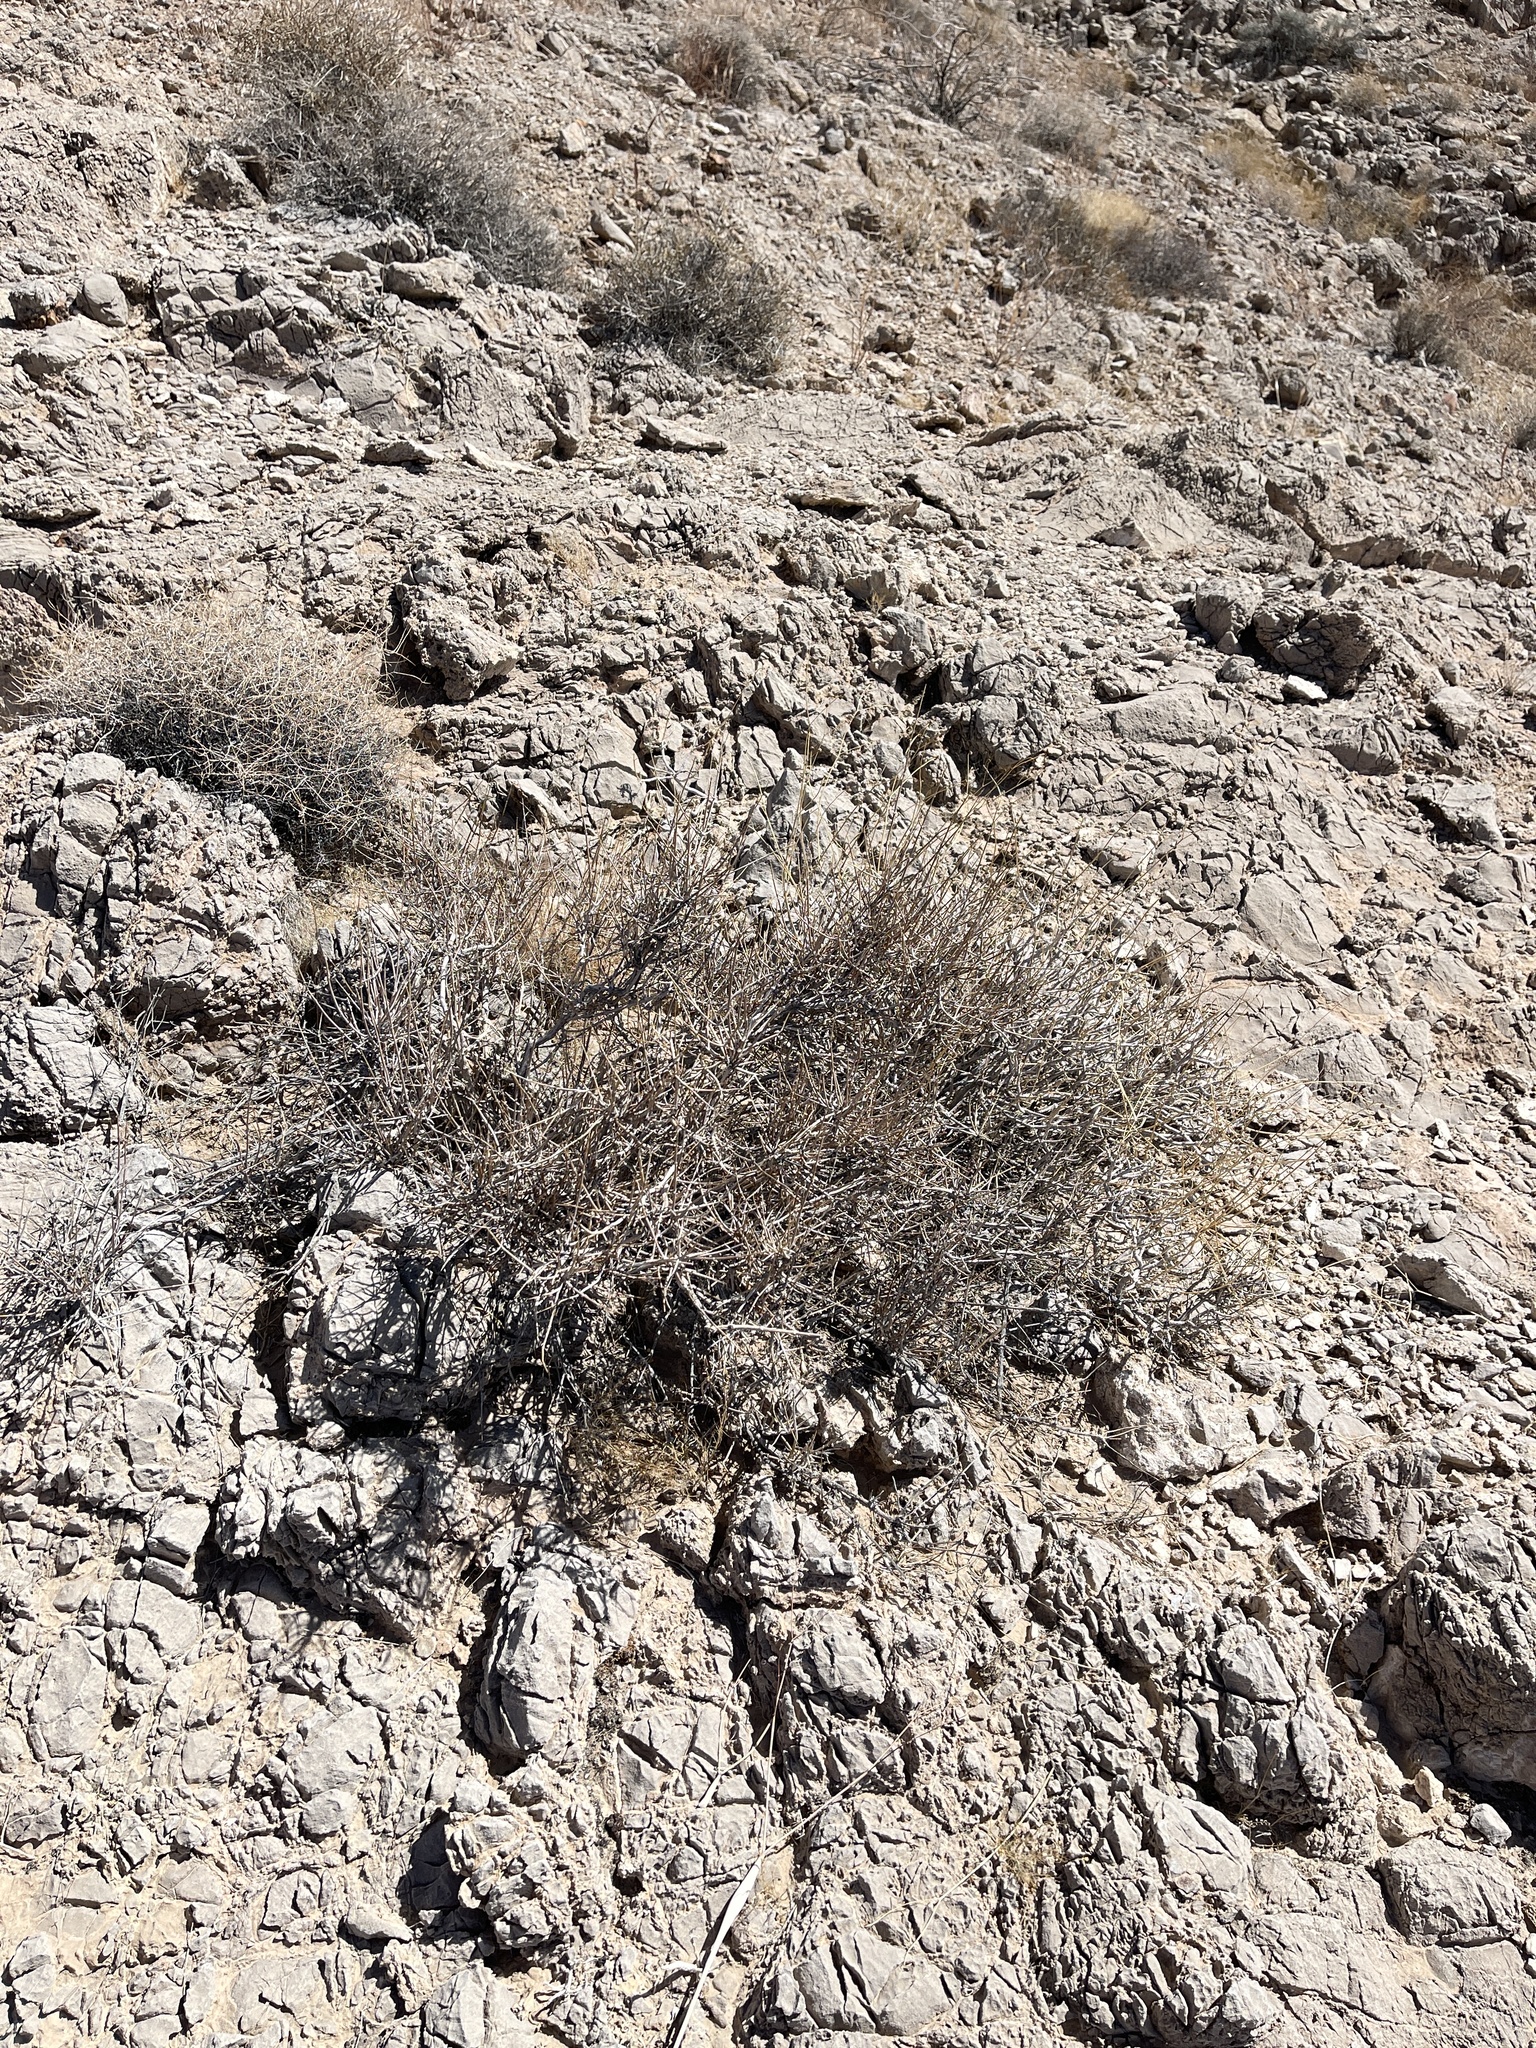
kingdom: Plantae
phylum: Tracheophyta
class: Gnetopsida
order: Ephedrales
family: Ephedraceae
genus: Ephedra
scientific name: Ephedra nevadensis
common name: Gray ephedra
